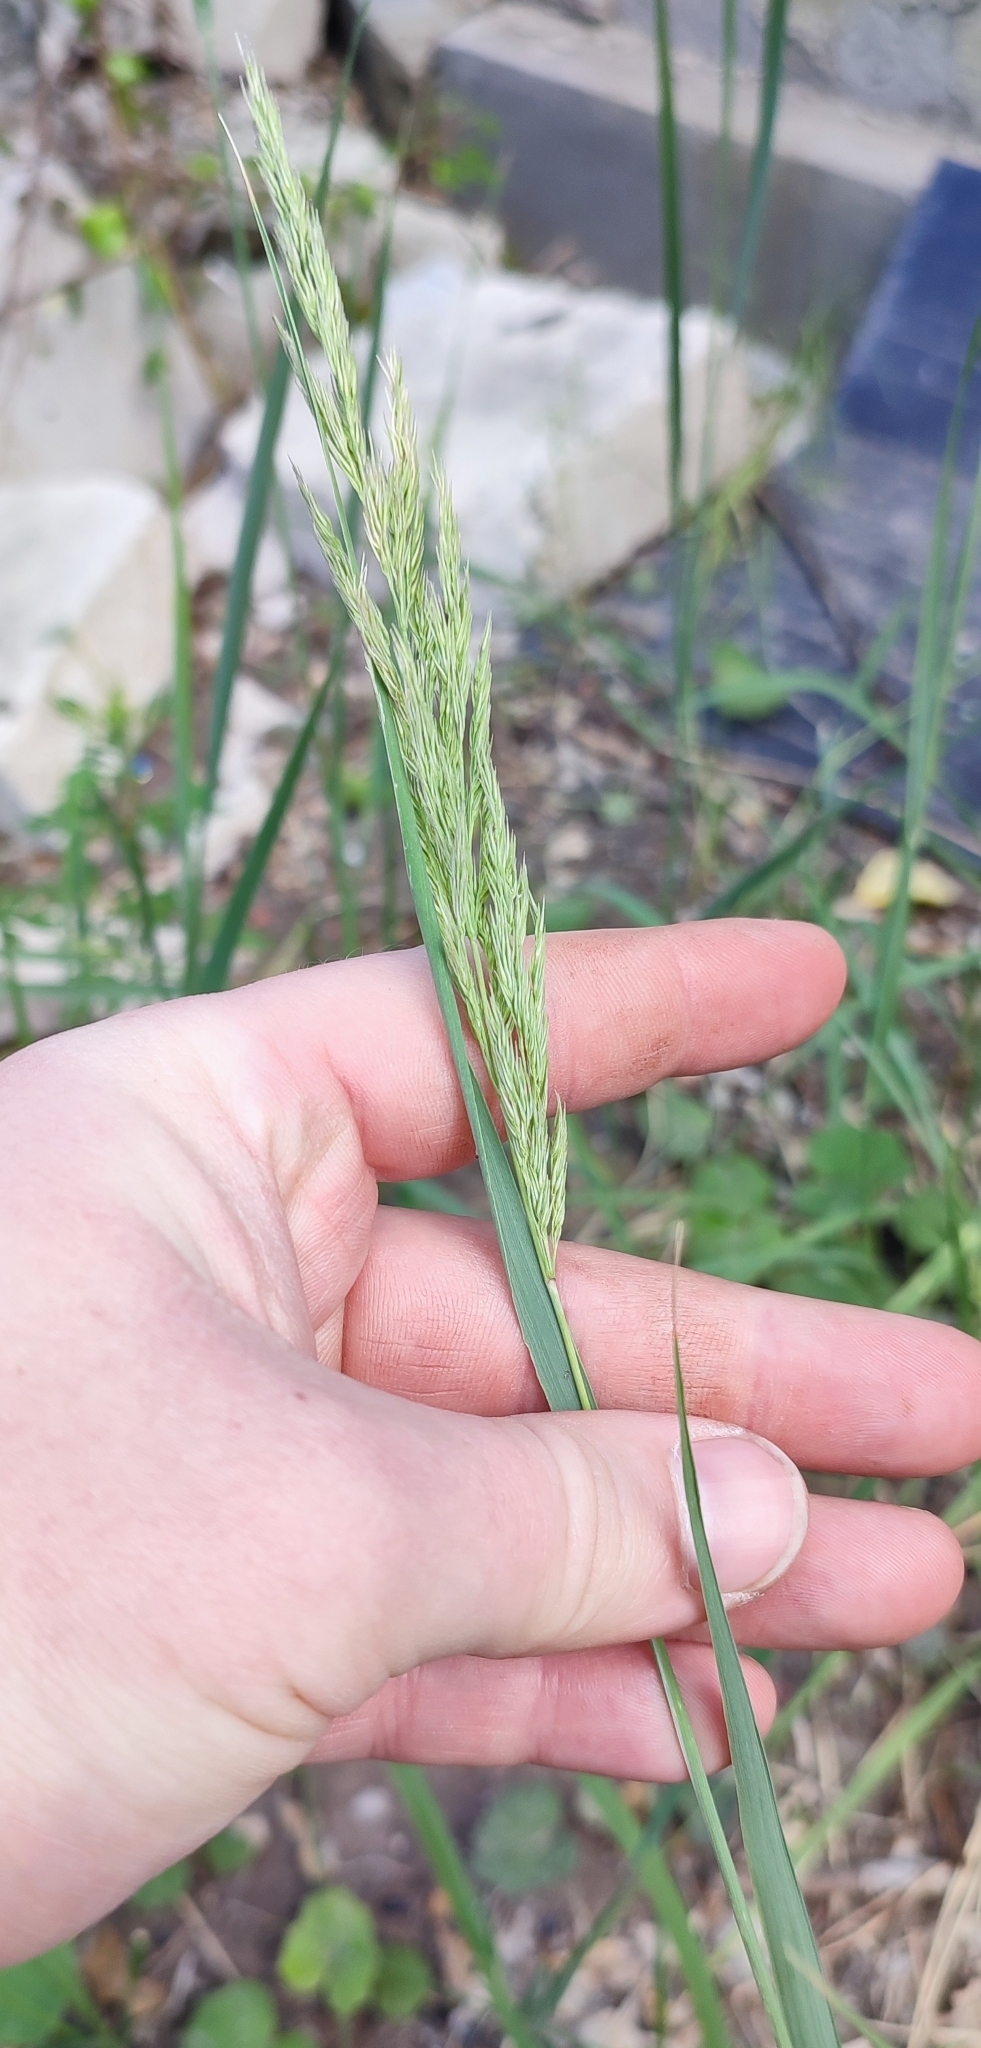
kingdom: Plantae
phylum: Tracheophyta
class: Liliopsida
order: Poales
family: Poaceae
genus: Calamagrostis
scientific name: Calamagrostis epigejos
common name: Wood small-reed
